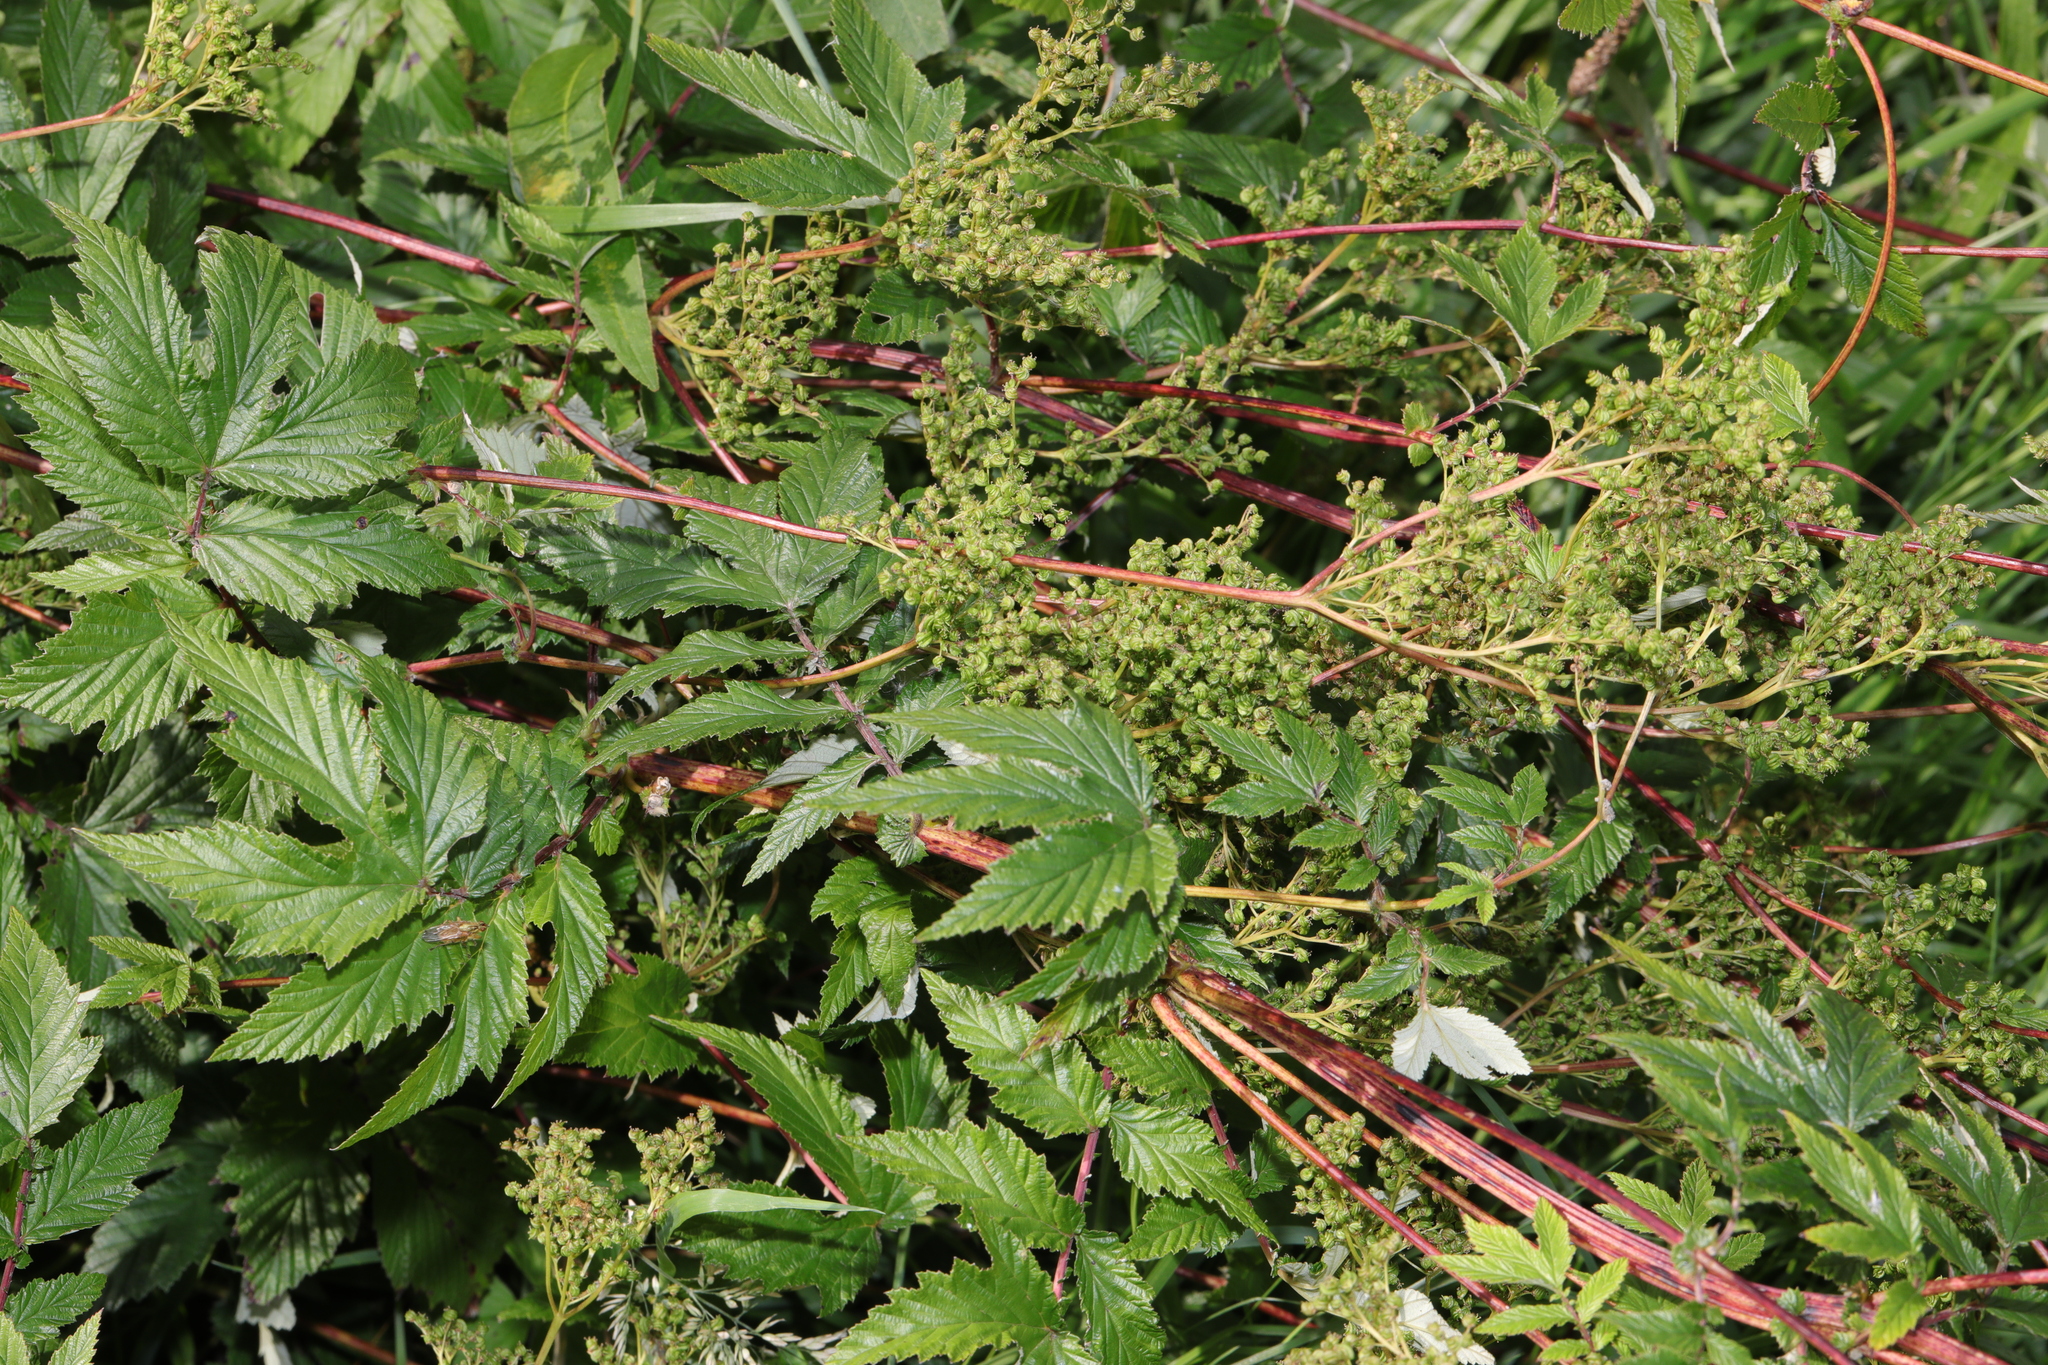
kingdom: Plantae
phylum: Tracheophyta
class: Magnoliopsida
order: Rosales
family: Rosaceae
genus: Filipendula
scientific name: Filipendula ulmaria
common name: Meadowsweet
